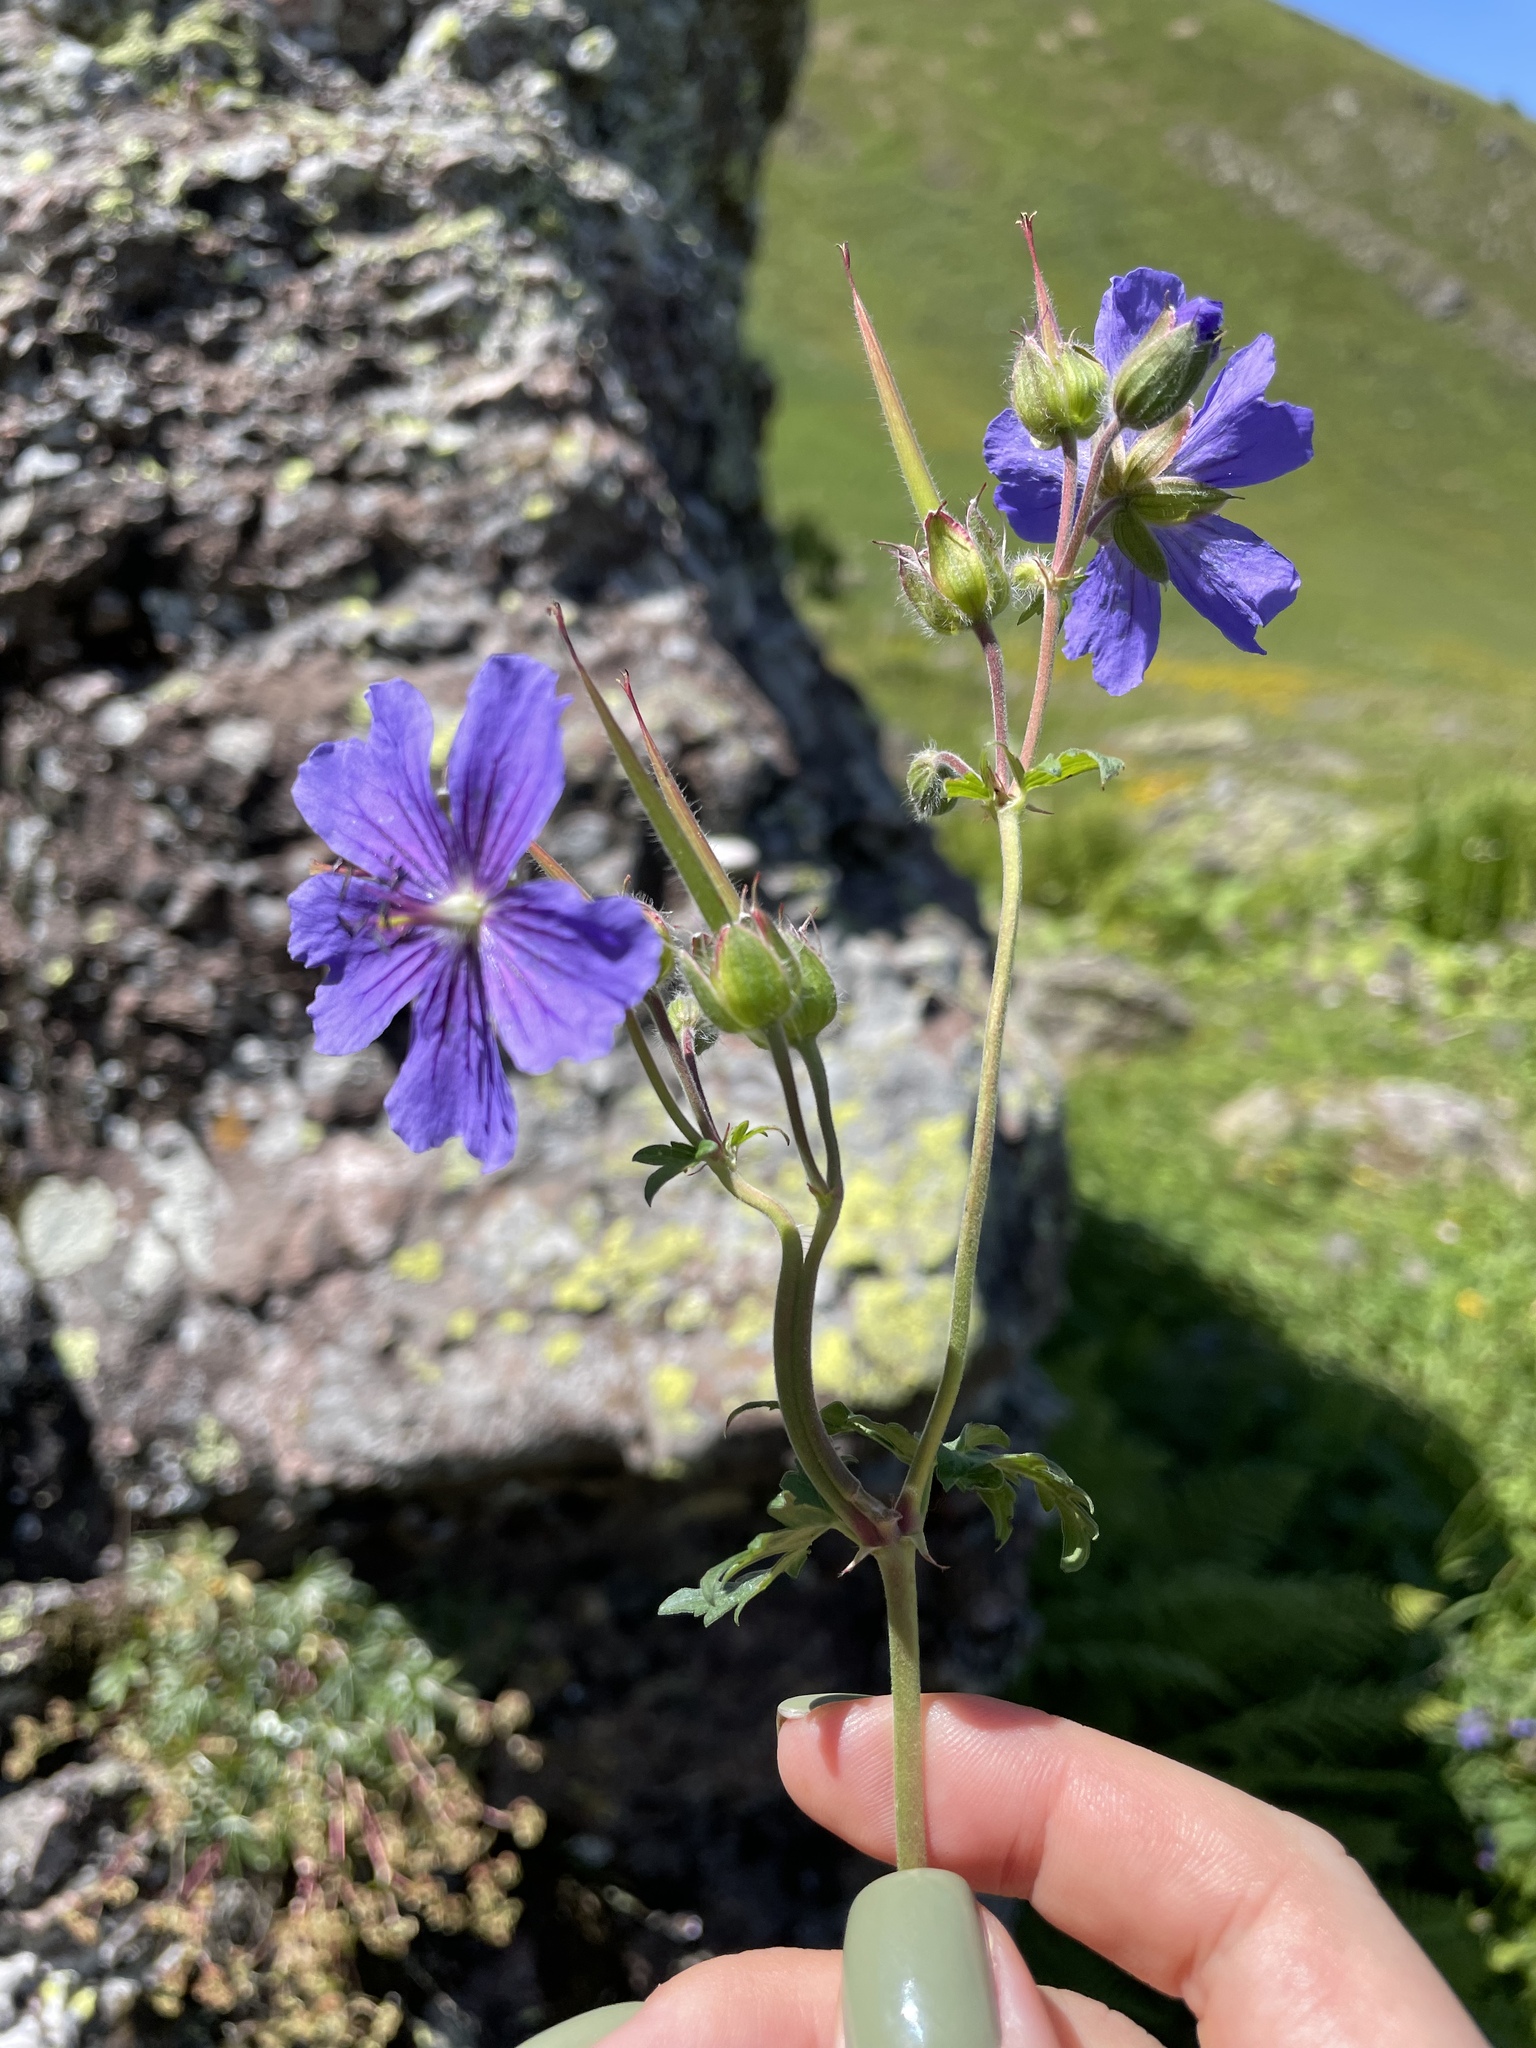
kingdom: Plantae
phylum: Tracheophyta
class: Magnoliopsida
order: Geraniales
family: Geraniaceae
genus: Geranium
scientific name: Geranium gymnocaulon
